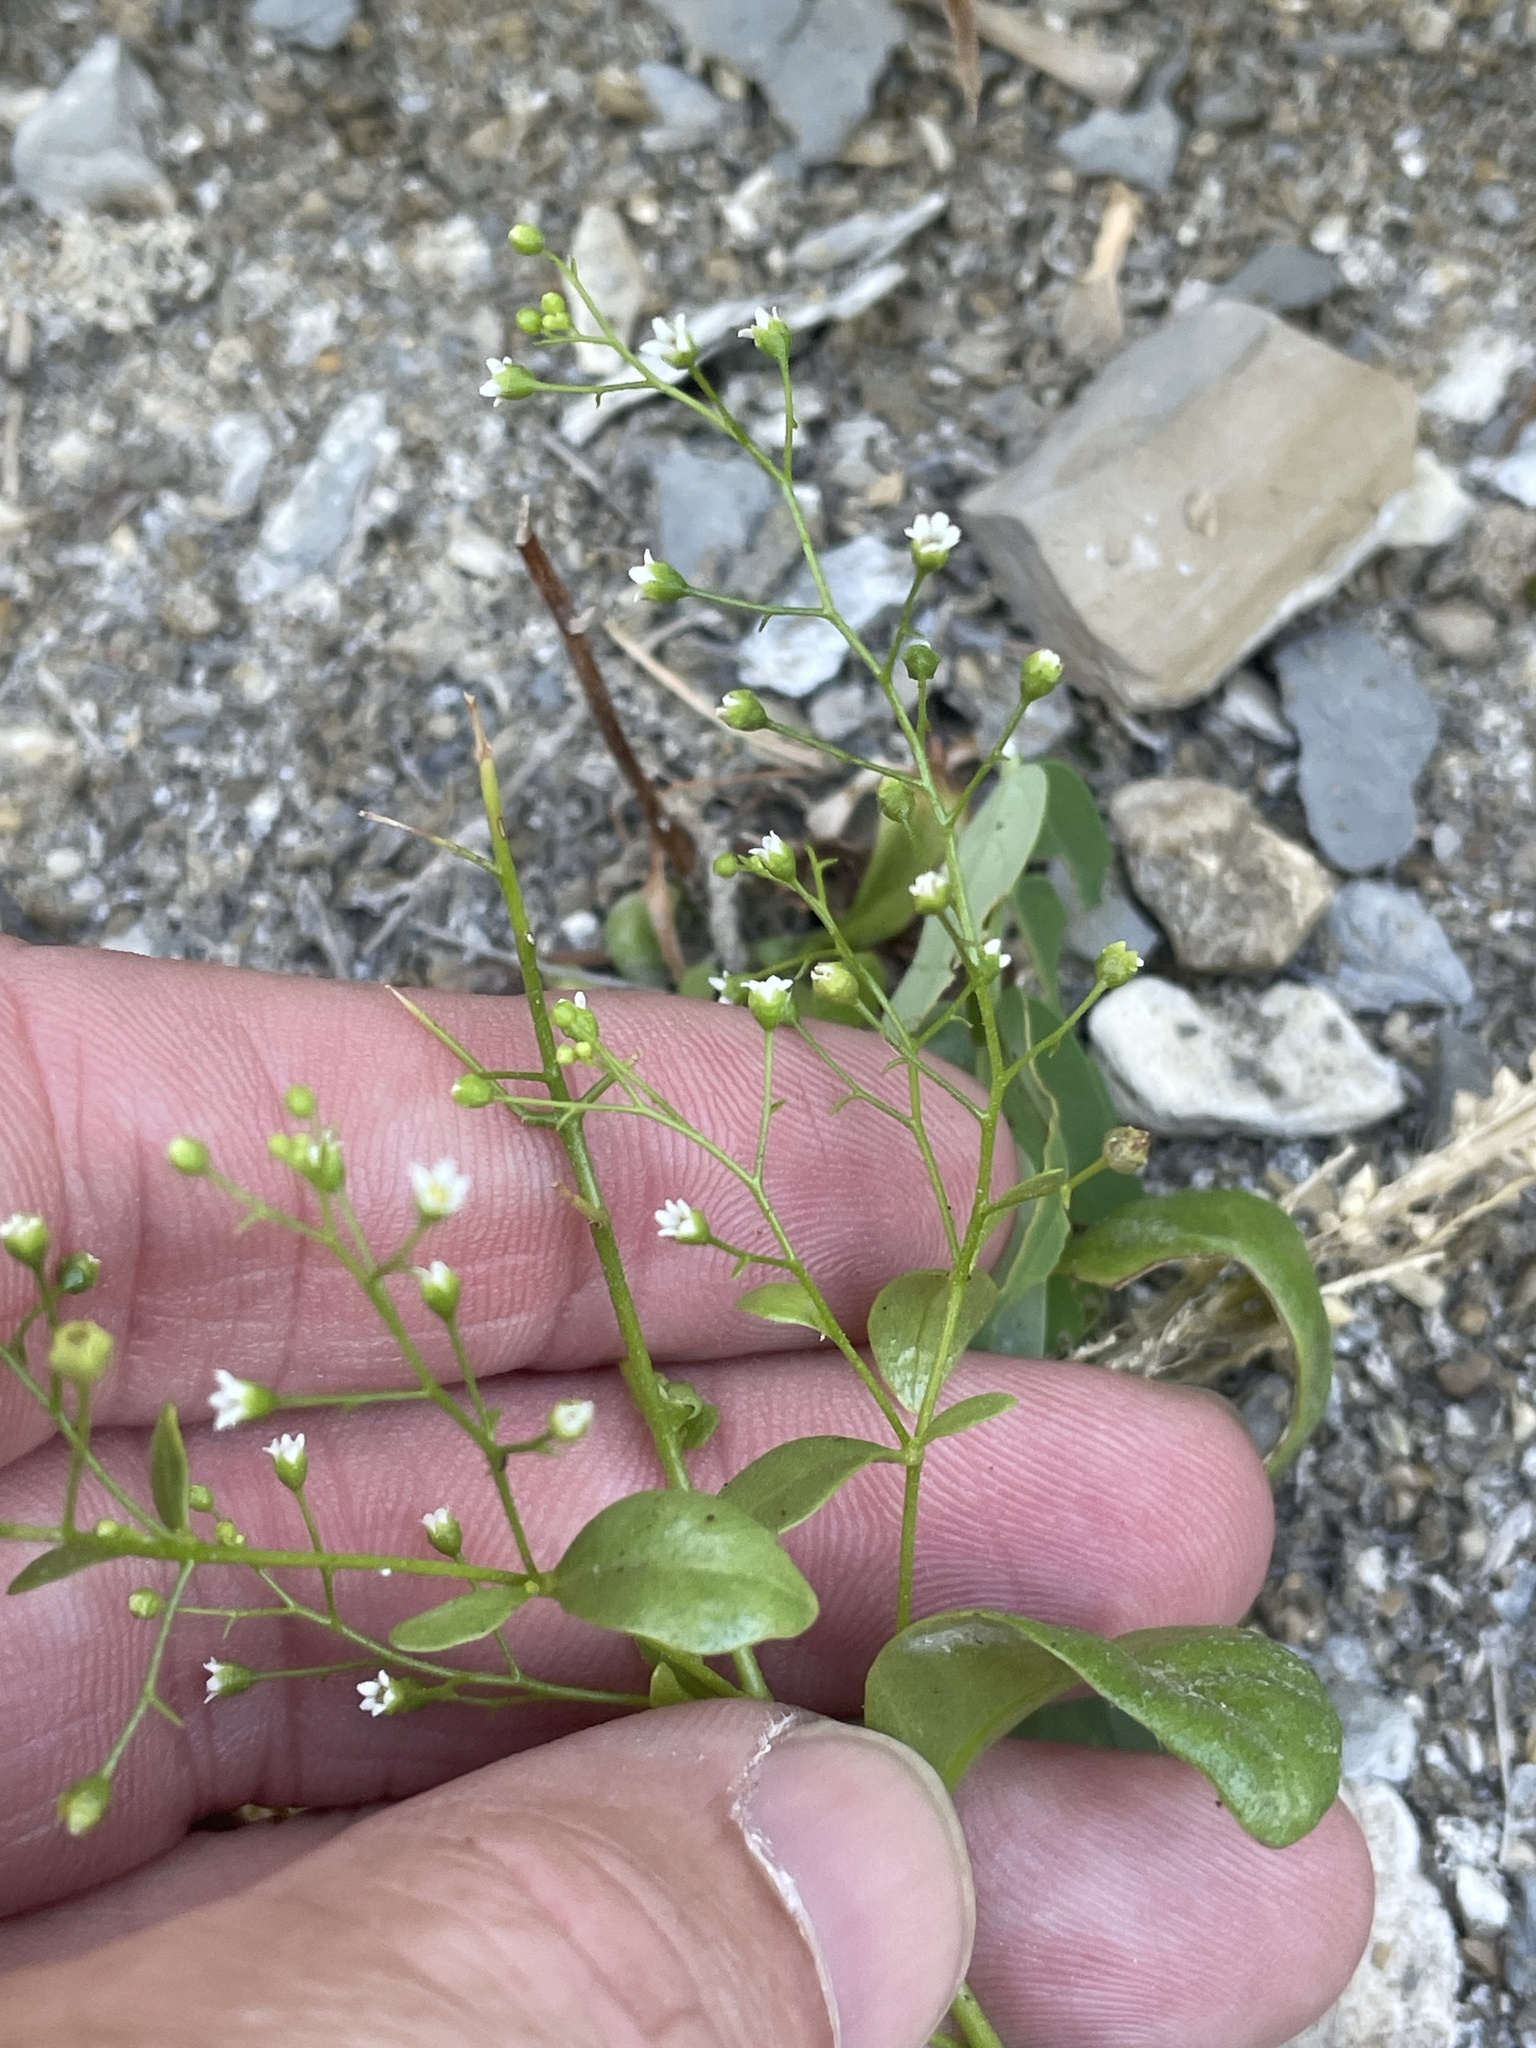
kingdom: Plantae
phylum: Tracheophyta
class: Magnoliopsida
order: Ericales
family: Primulaceae
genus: Samolus
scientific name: Samolus parviflorus
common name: False water pimpernel
